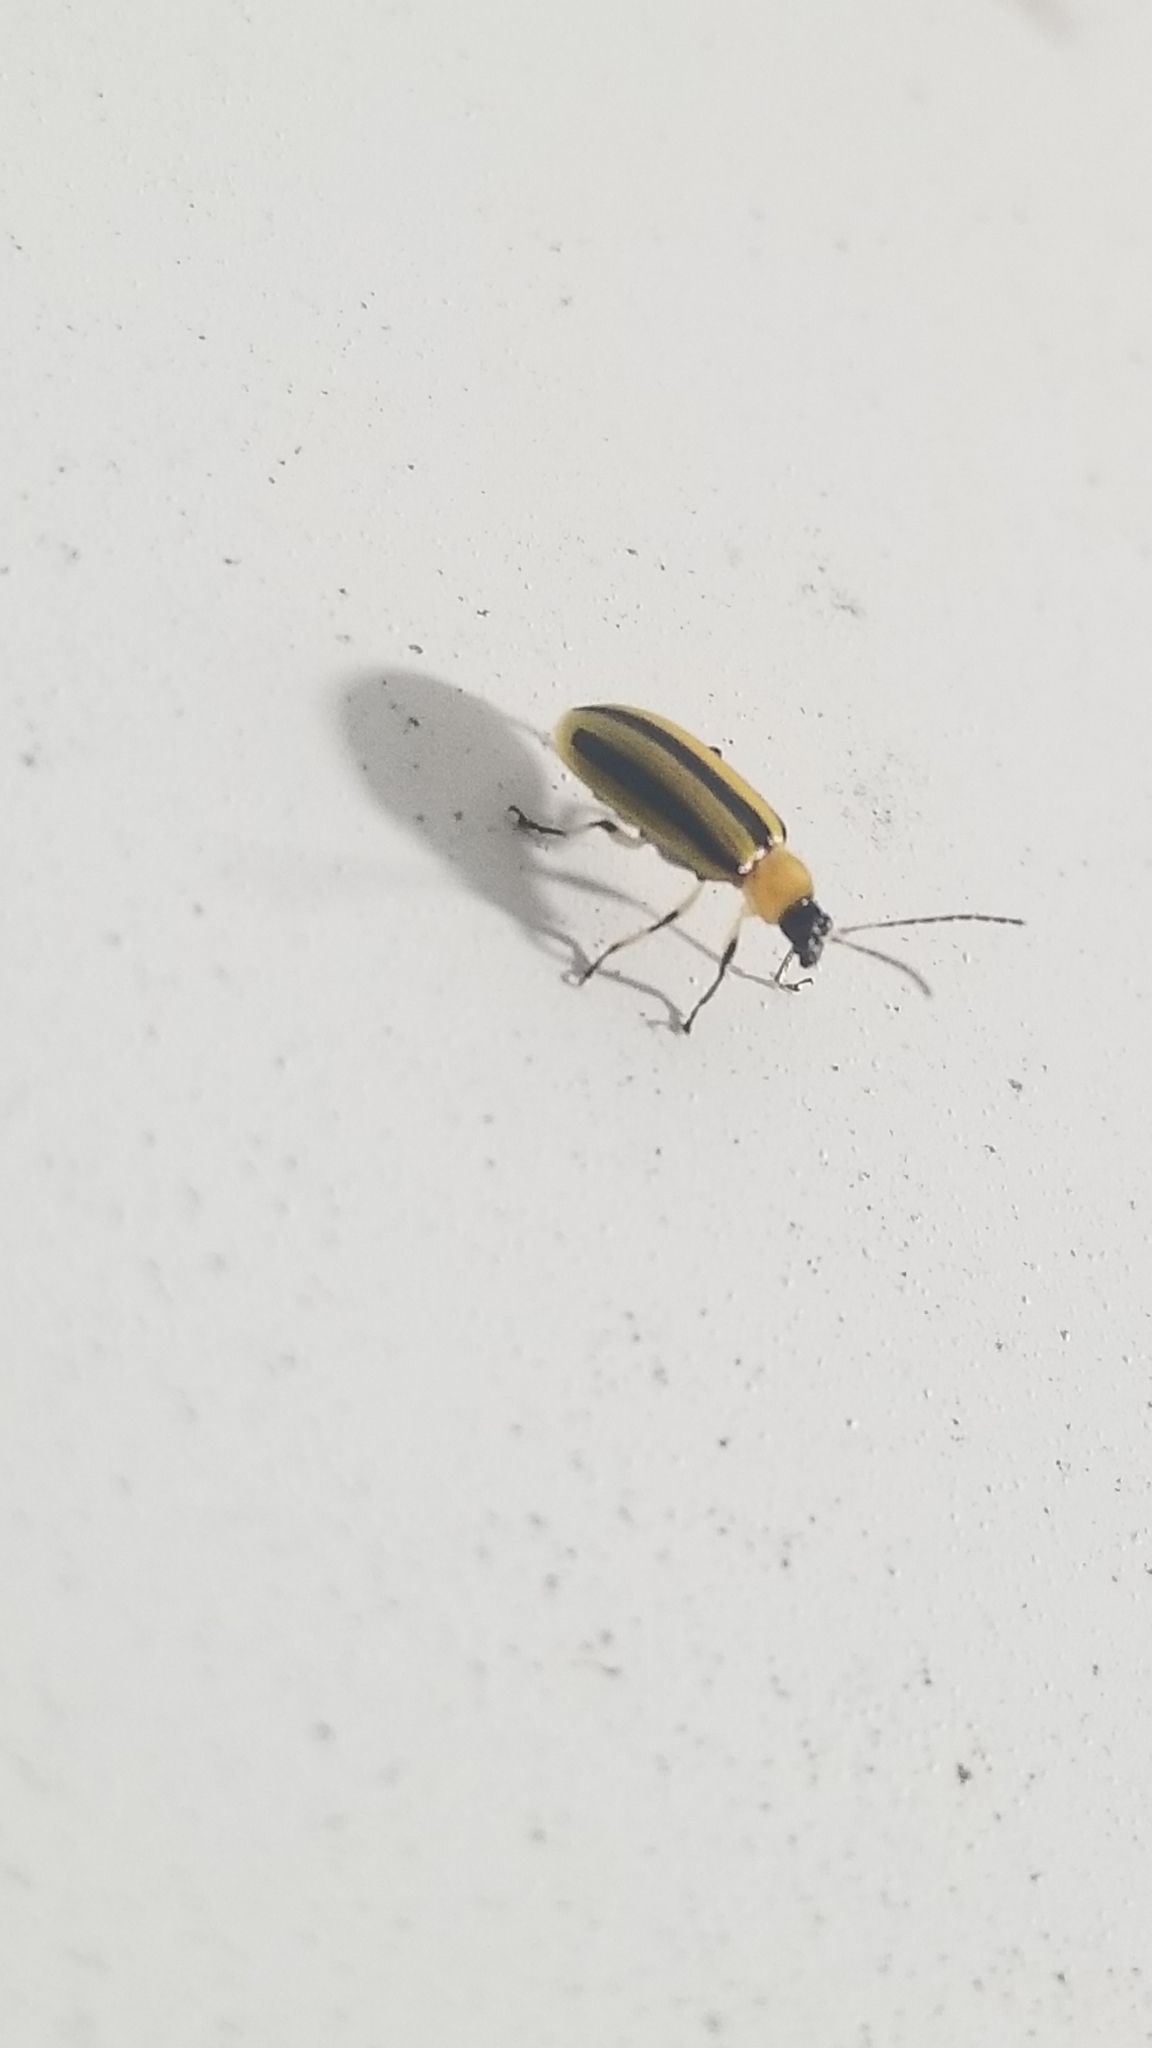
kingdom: Animalia
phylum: Arthropoda
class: Insecta
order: Coleoptera
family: Chrysomelidae
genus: Acalymma
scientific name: Acalymma vittatum
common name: Striped cucumber beetle
